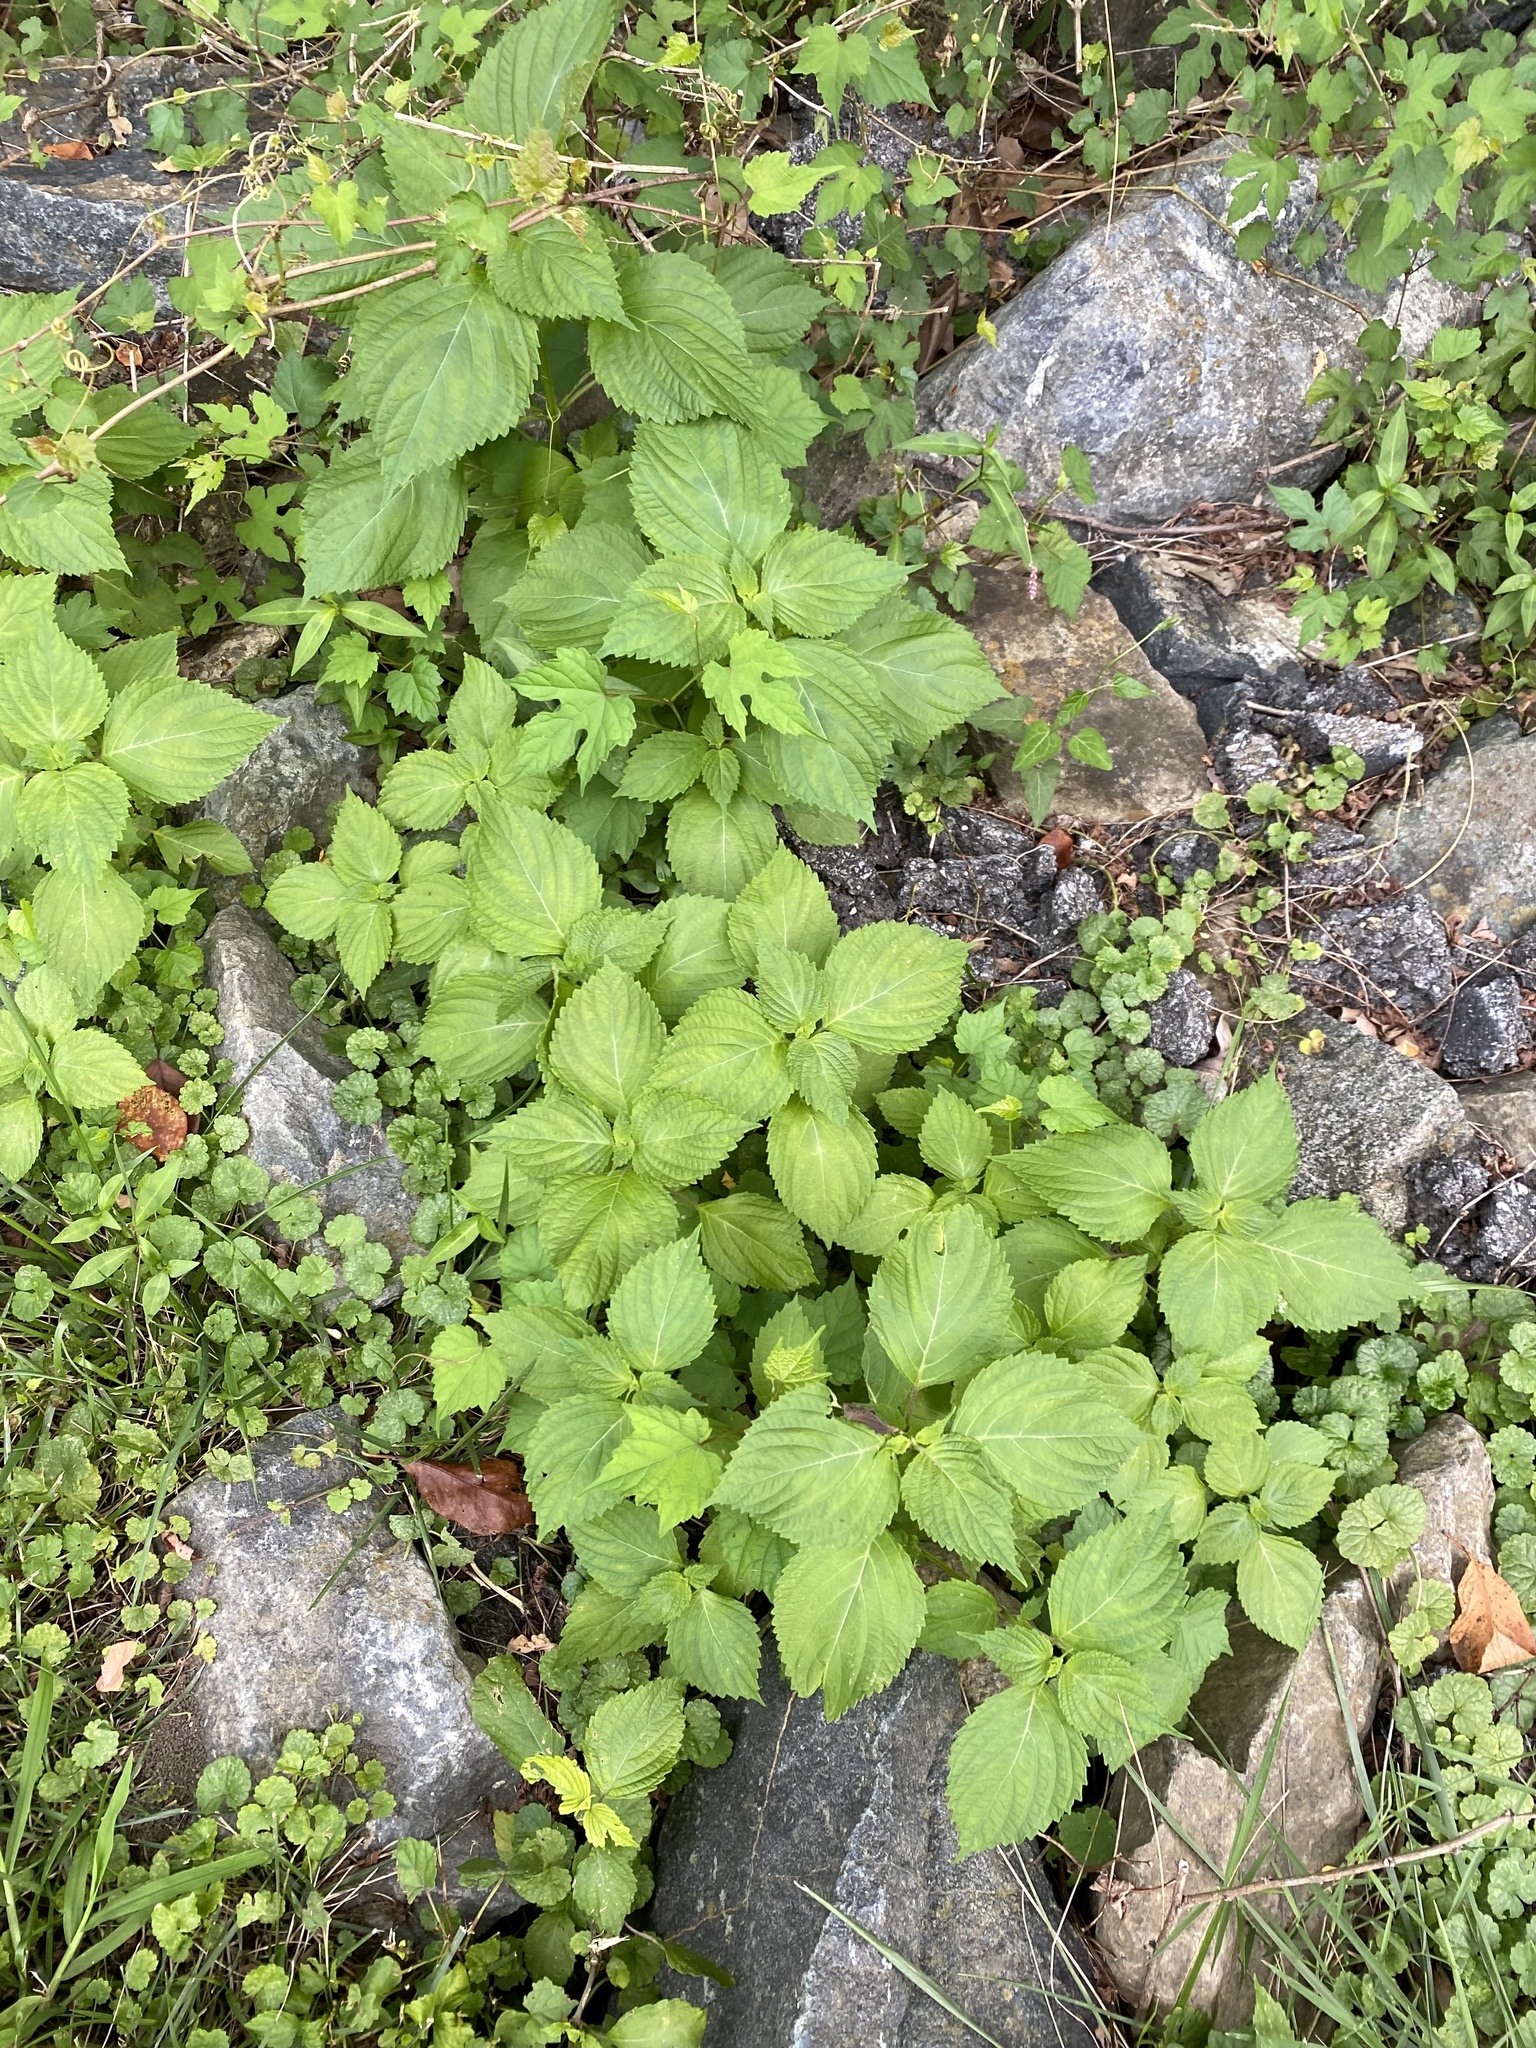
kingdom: Plantae
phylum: Tracheophyta
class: Magnoliopsida
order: Lamiales
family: Lamiaceae
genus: Perilla
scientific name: Perilla frutescens
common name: Perilla
